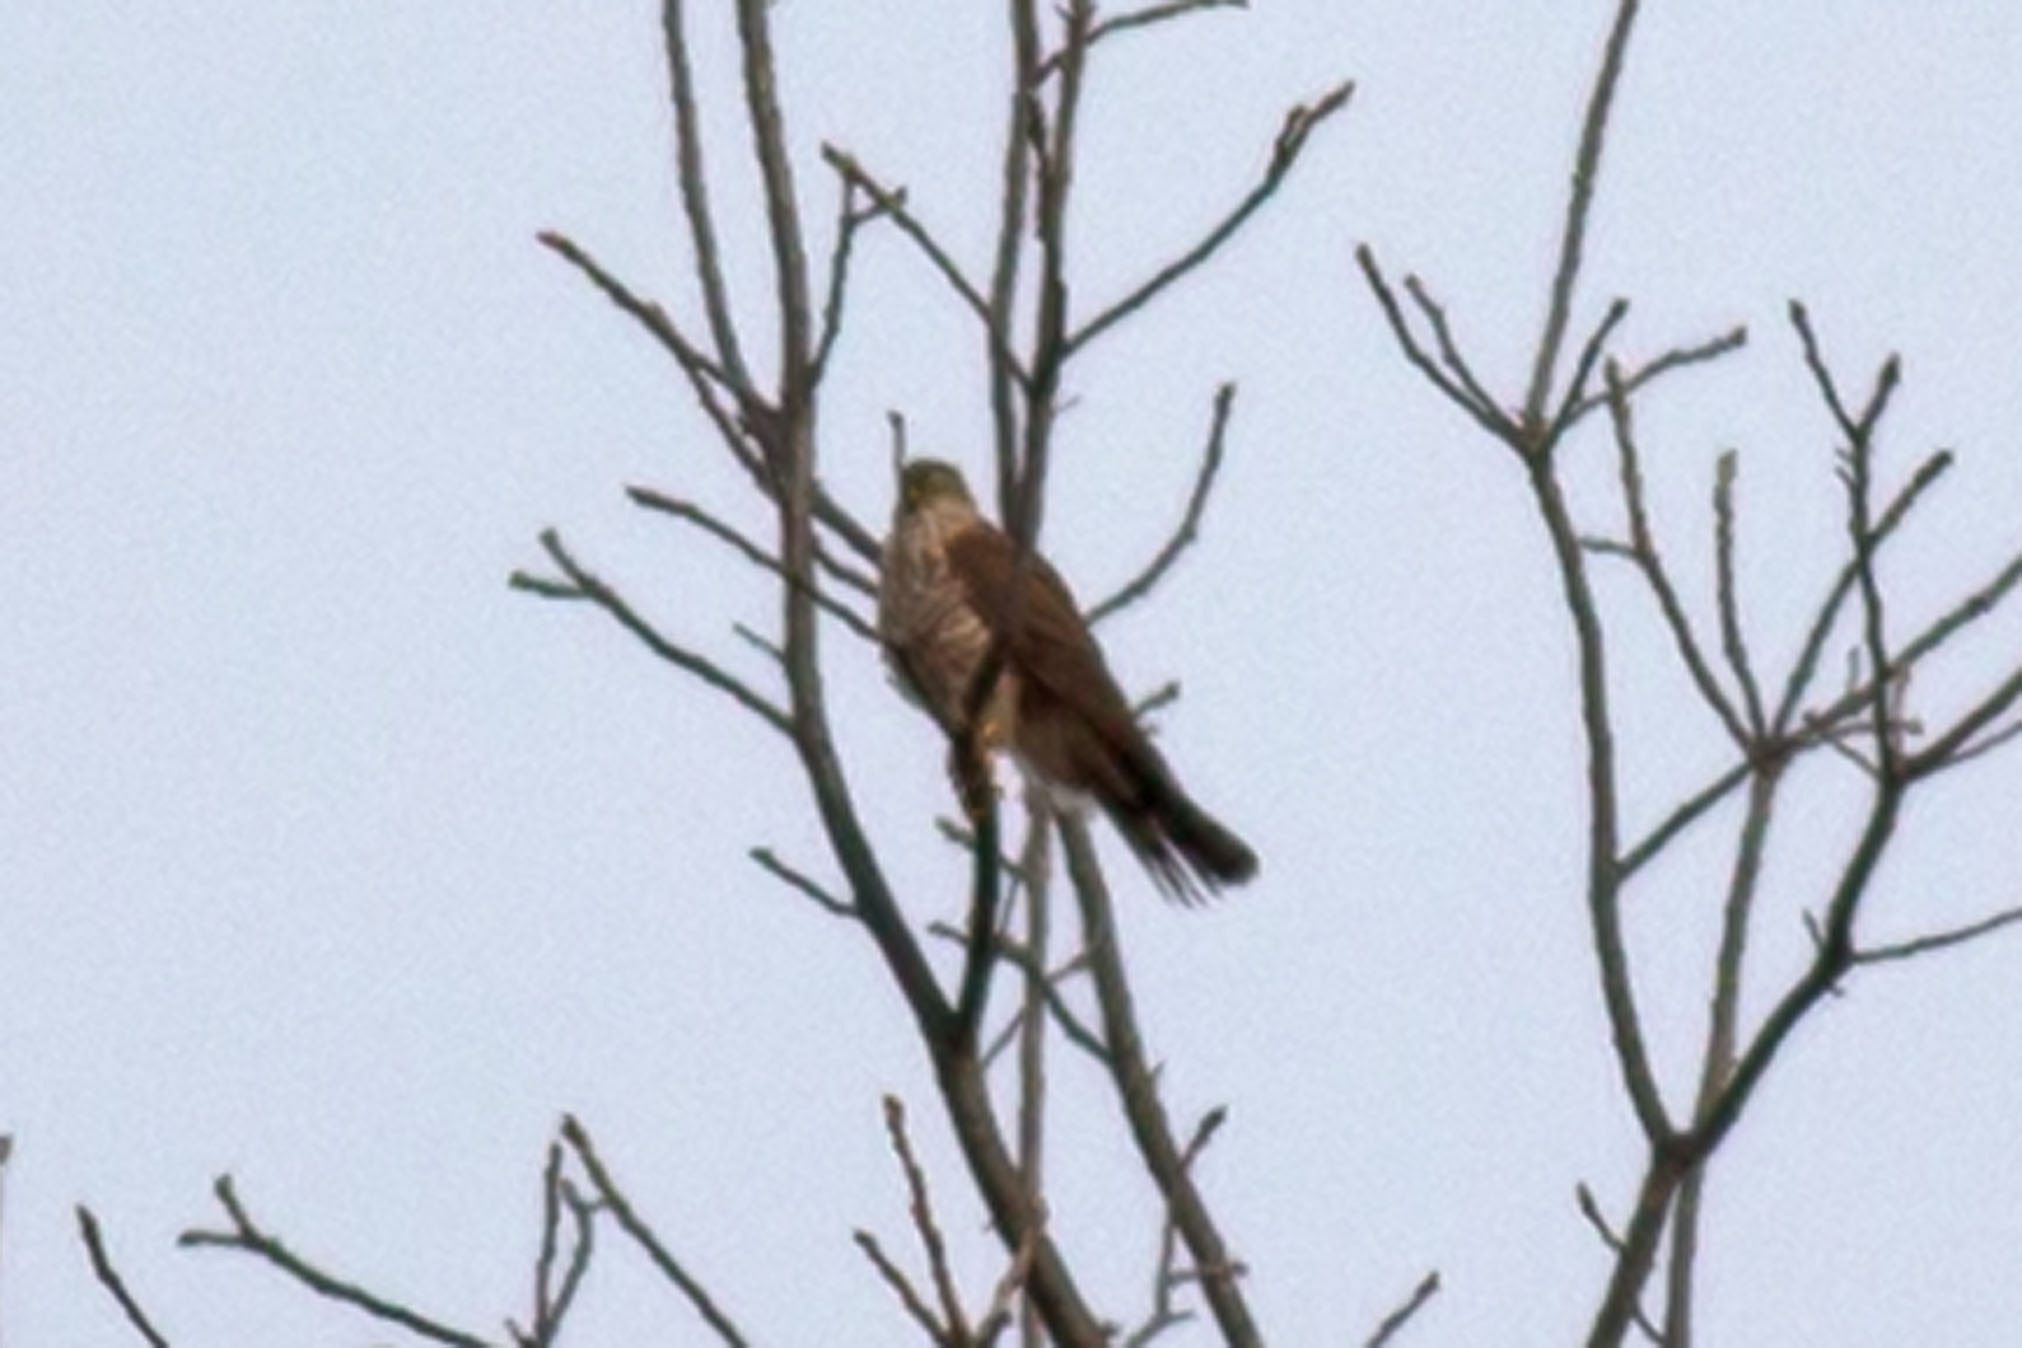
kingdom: Animalia
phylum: Chordata
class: Aves
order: Accipitriformes
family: Accipitridae
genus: Accipiter
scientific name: Accipiter striatus
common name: Sharp-shinned hawk
